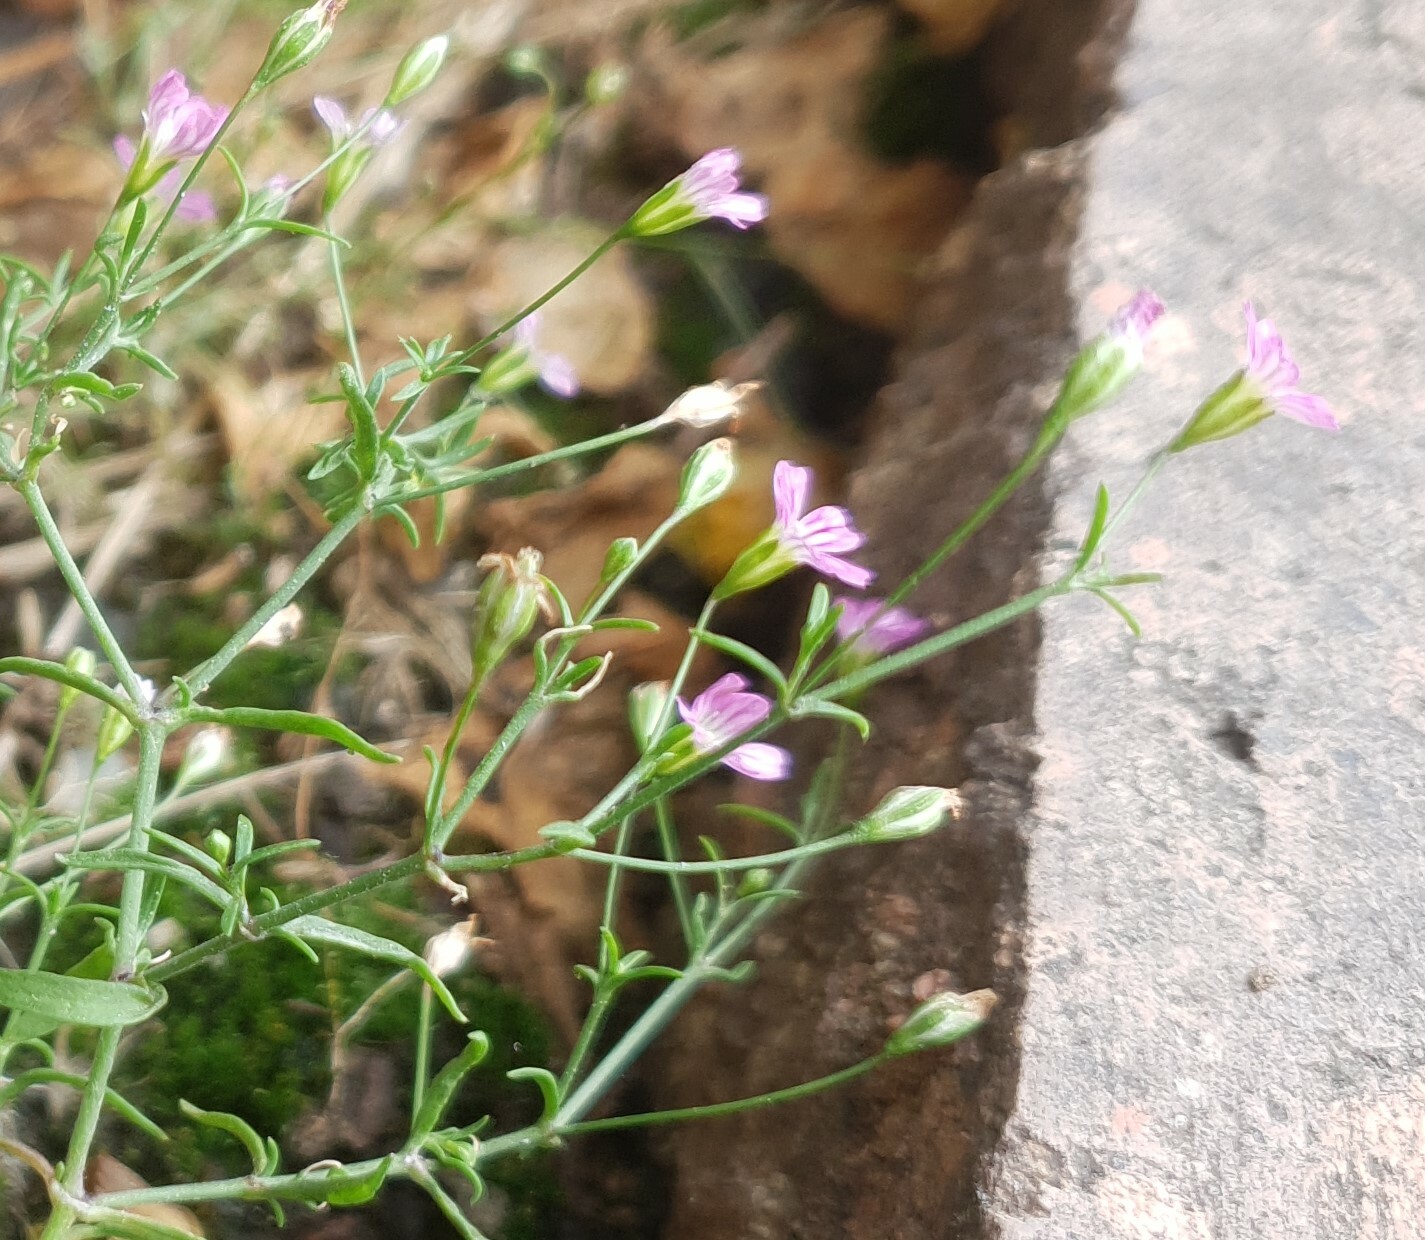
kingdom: Plantae
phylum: Tracheophyta
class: Magnoliopsida
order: Caryophyllales
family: Caryophyllaceae
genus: Psammophiliella
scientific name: Psammophiliella muralis
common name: Cushion baby's-breath
